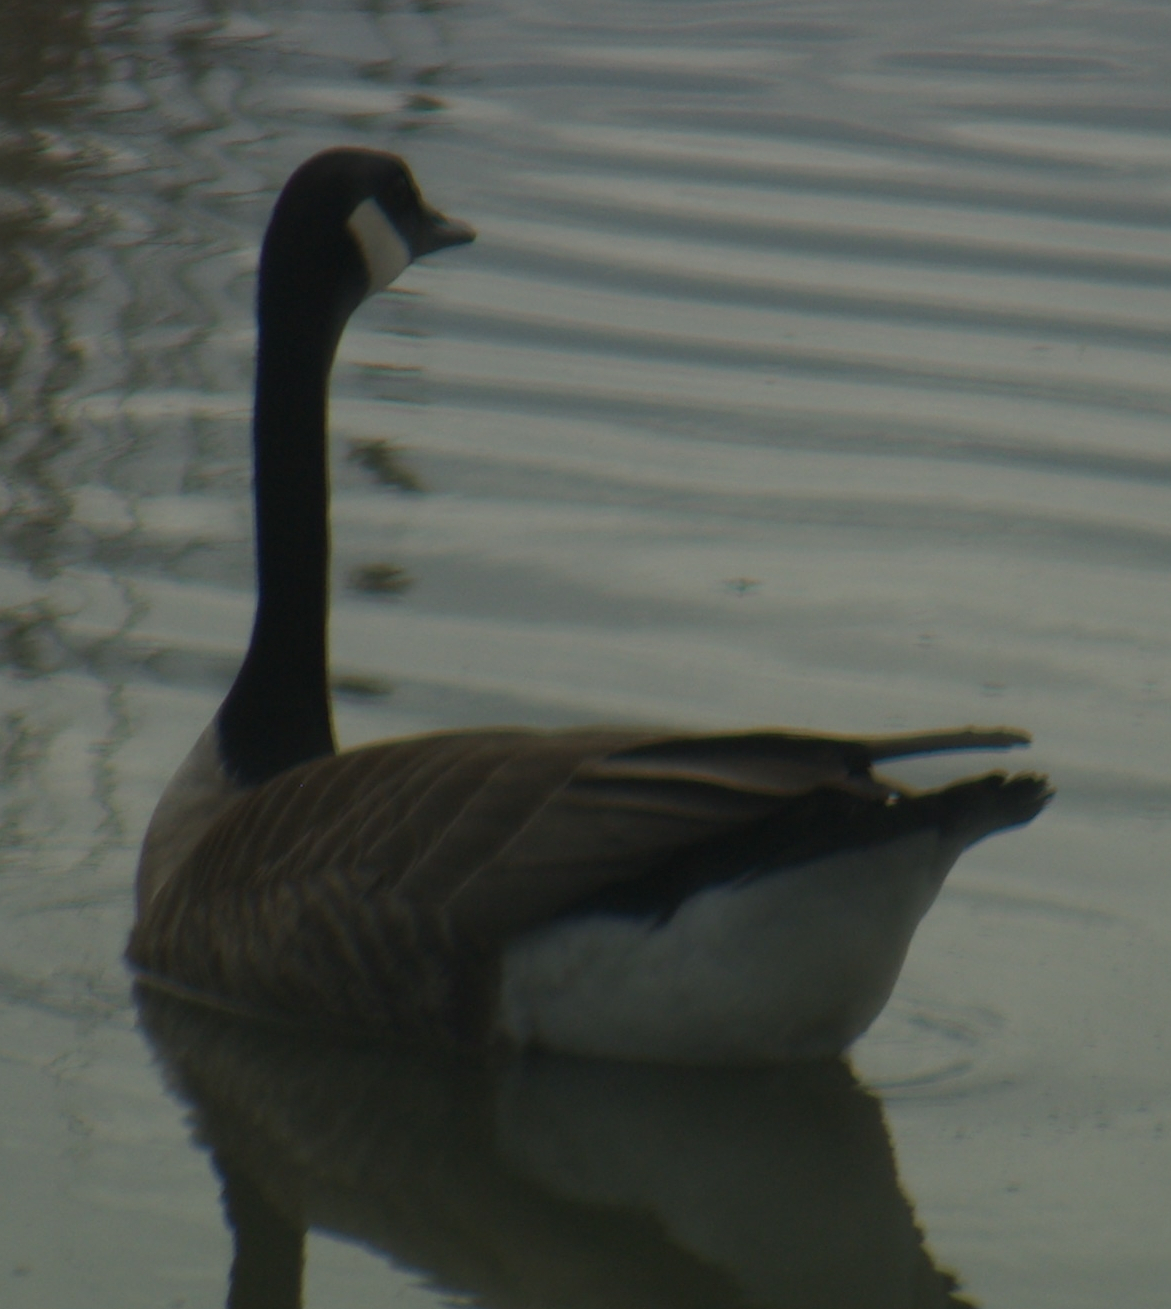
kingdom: Animalia
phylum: Chordata
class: Aves
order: Anseriformes
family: Anatidae
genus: Branta
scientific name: Branta canadensis
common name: Canada goose
